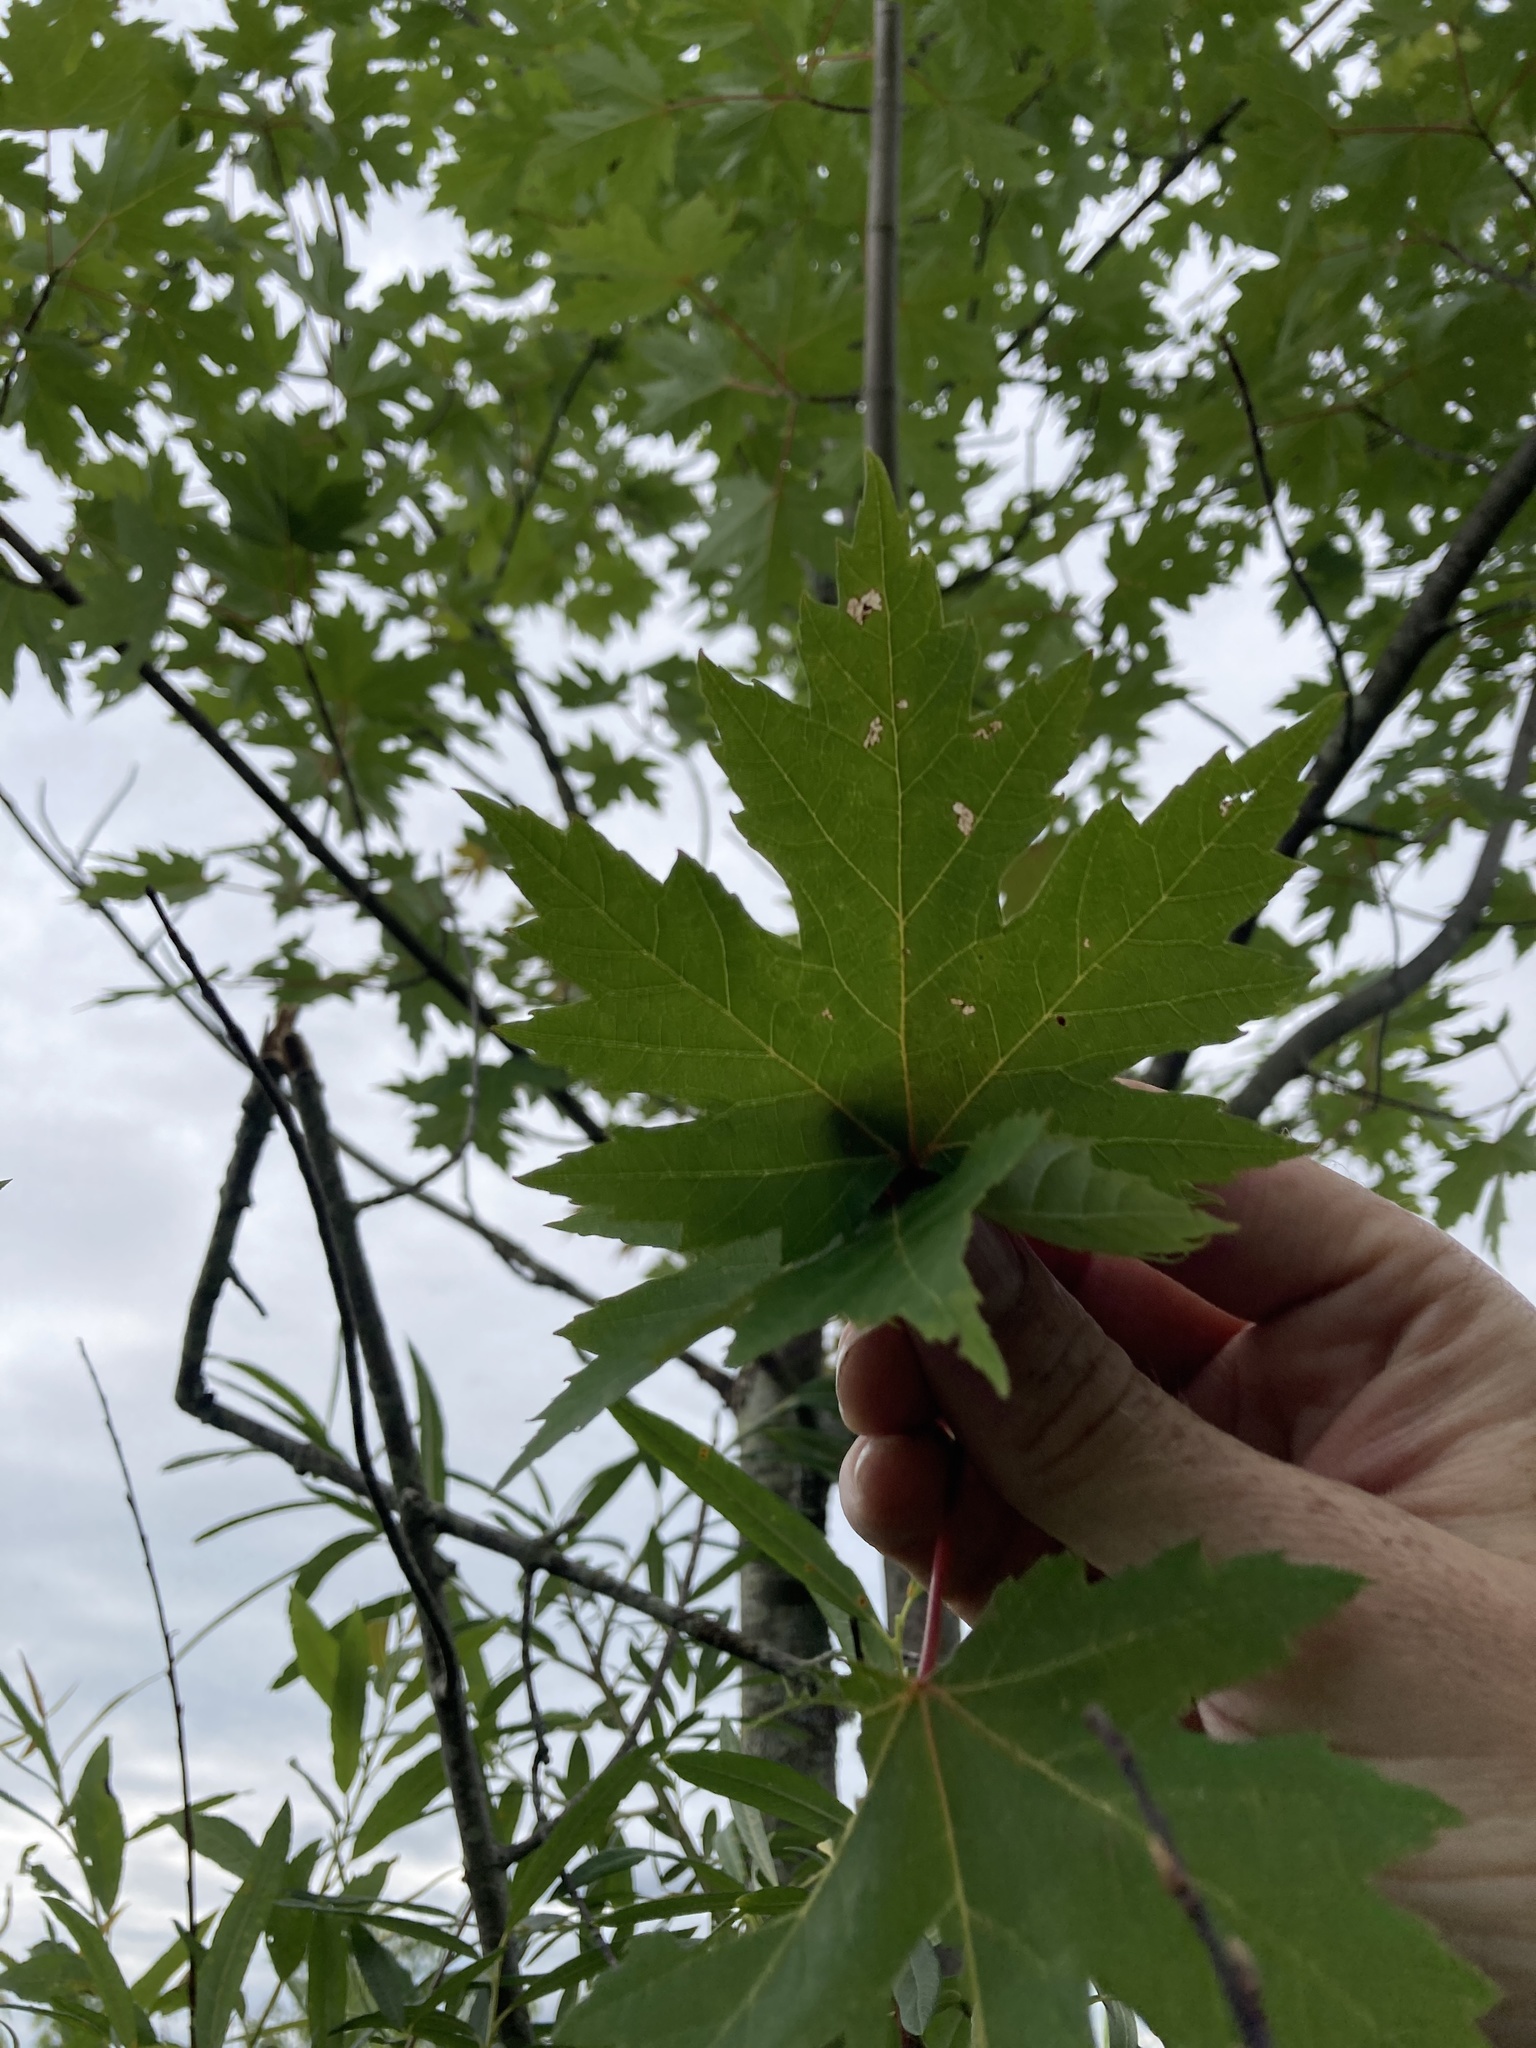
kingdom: Plantae
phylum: Tracheophyta
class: Magnoliopsida
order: Sapindales
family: Sapindaceae
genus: Acer
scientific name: Acer saccharinum
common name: Silver maple
